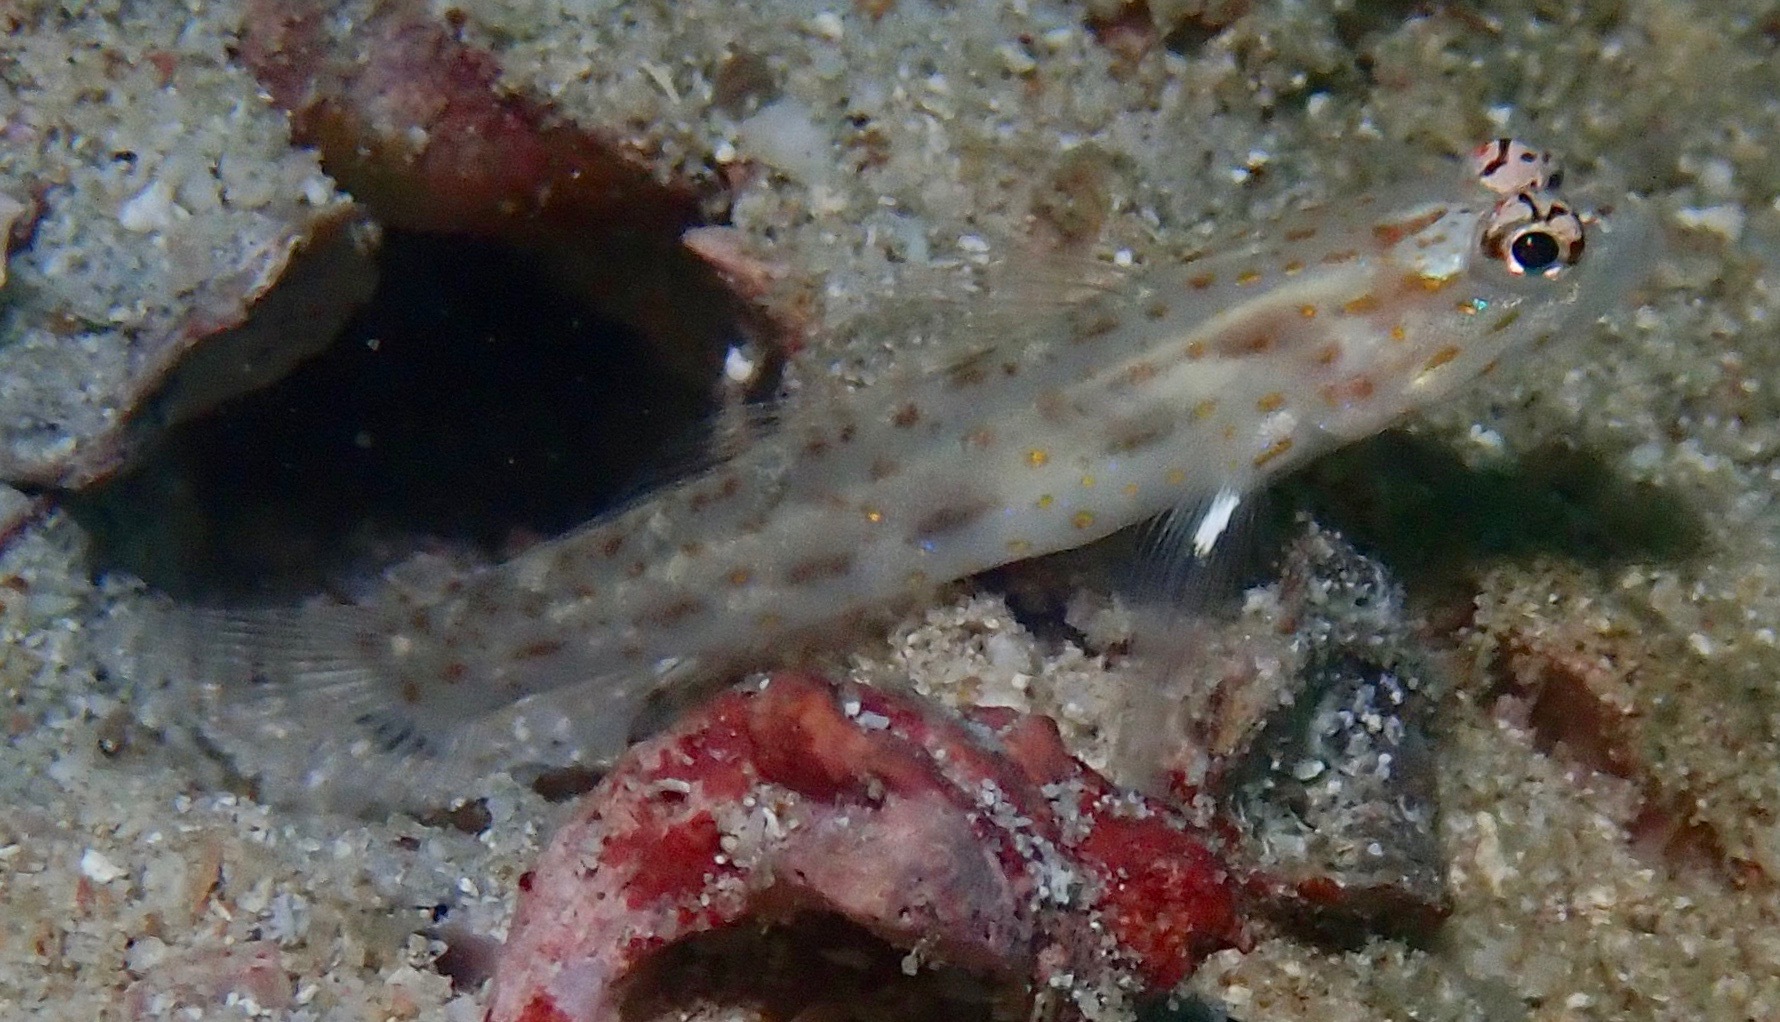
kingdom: Animalia
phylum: Chordata
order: Perciformes
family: Gobiidae
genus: Ctenogobiops
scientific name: Ctenogobiops pomastictus
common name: Spotfin shrimp goby
